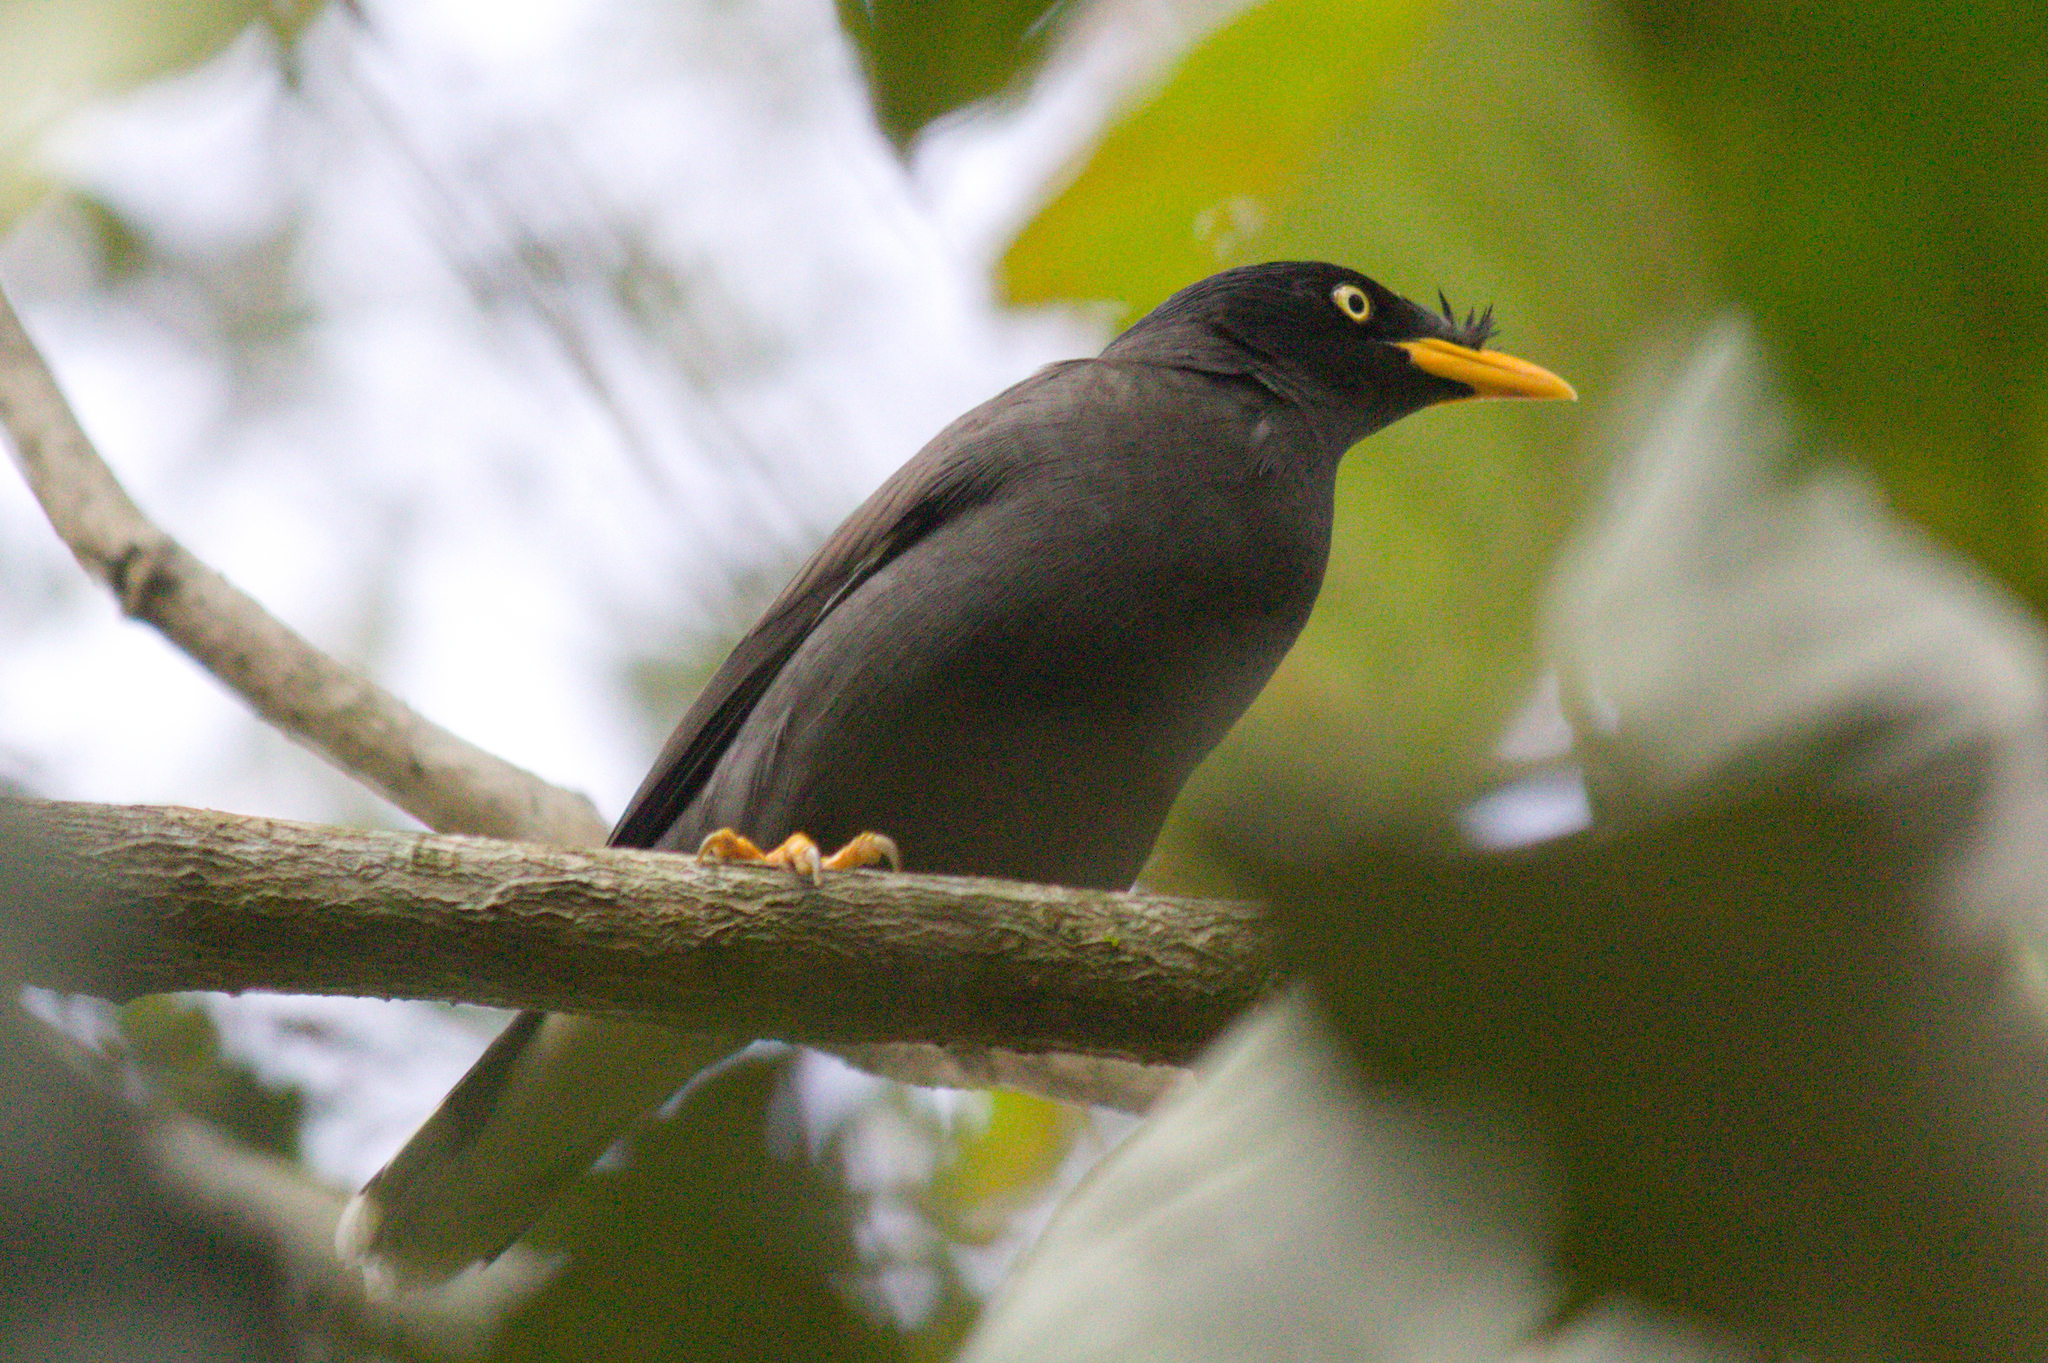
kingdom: Animalia
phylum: Chordata
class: Aves
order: Passeriformes
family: Sturnidae
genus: Acridotheres
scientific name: Acridotheres javanicus
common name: Javan myna
